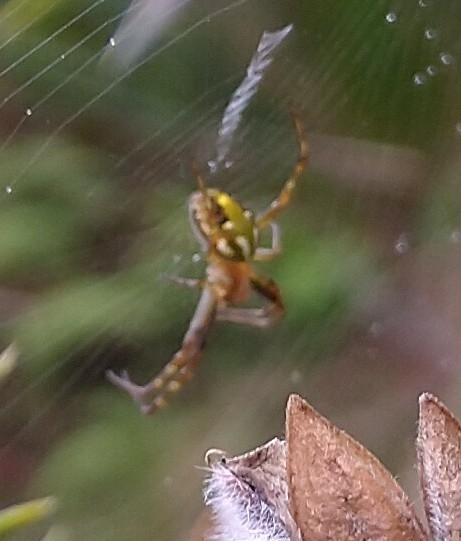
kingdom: Animalia
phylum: Arthropoda
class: Arachnida
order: Araneae
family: Araneidae
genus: Novaranea
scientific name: Novaranea queribunda
